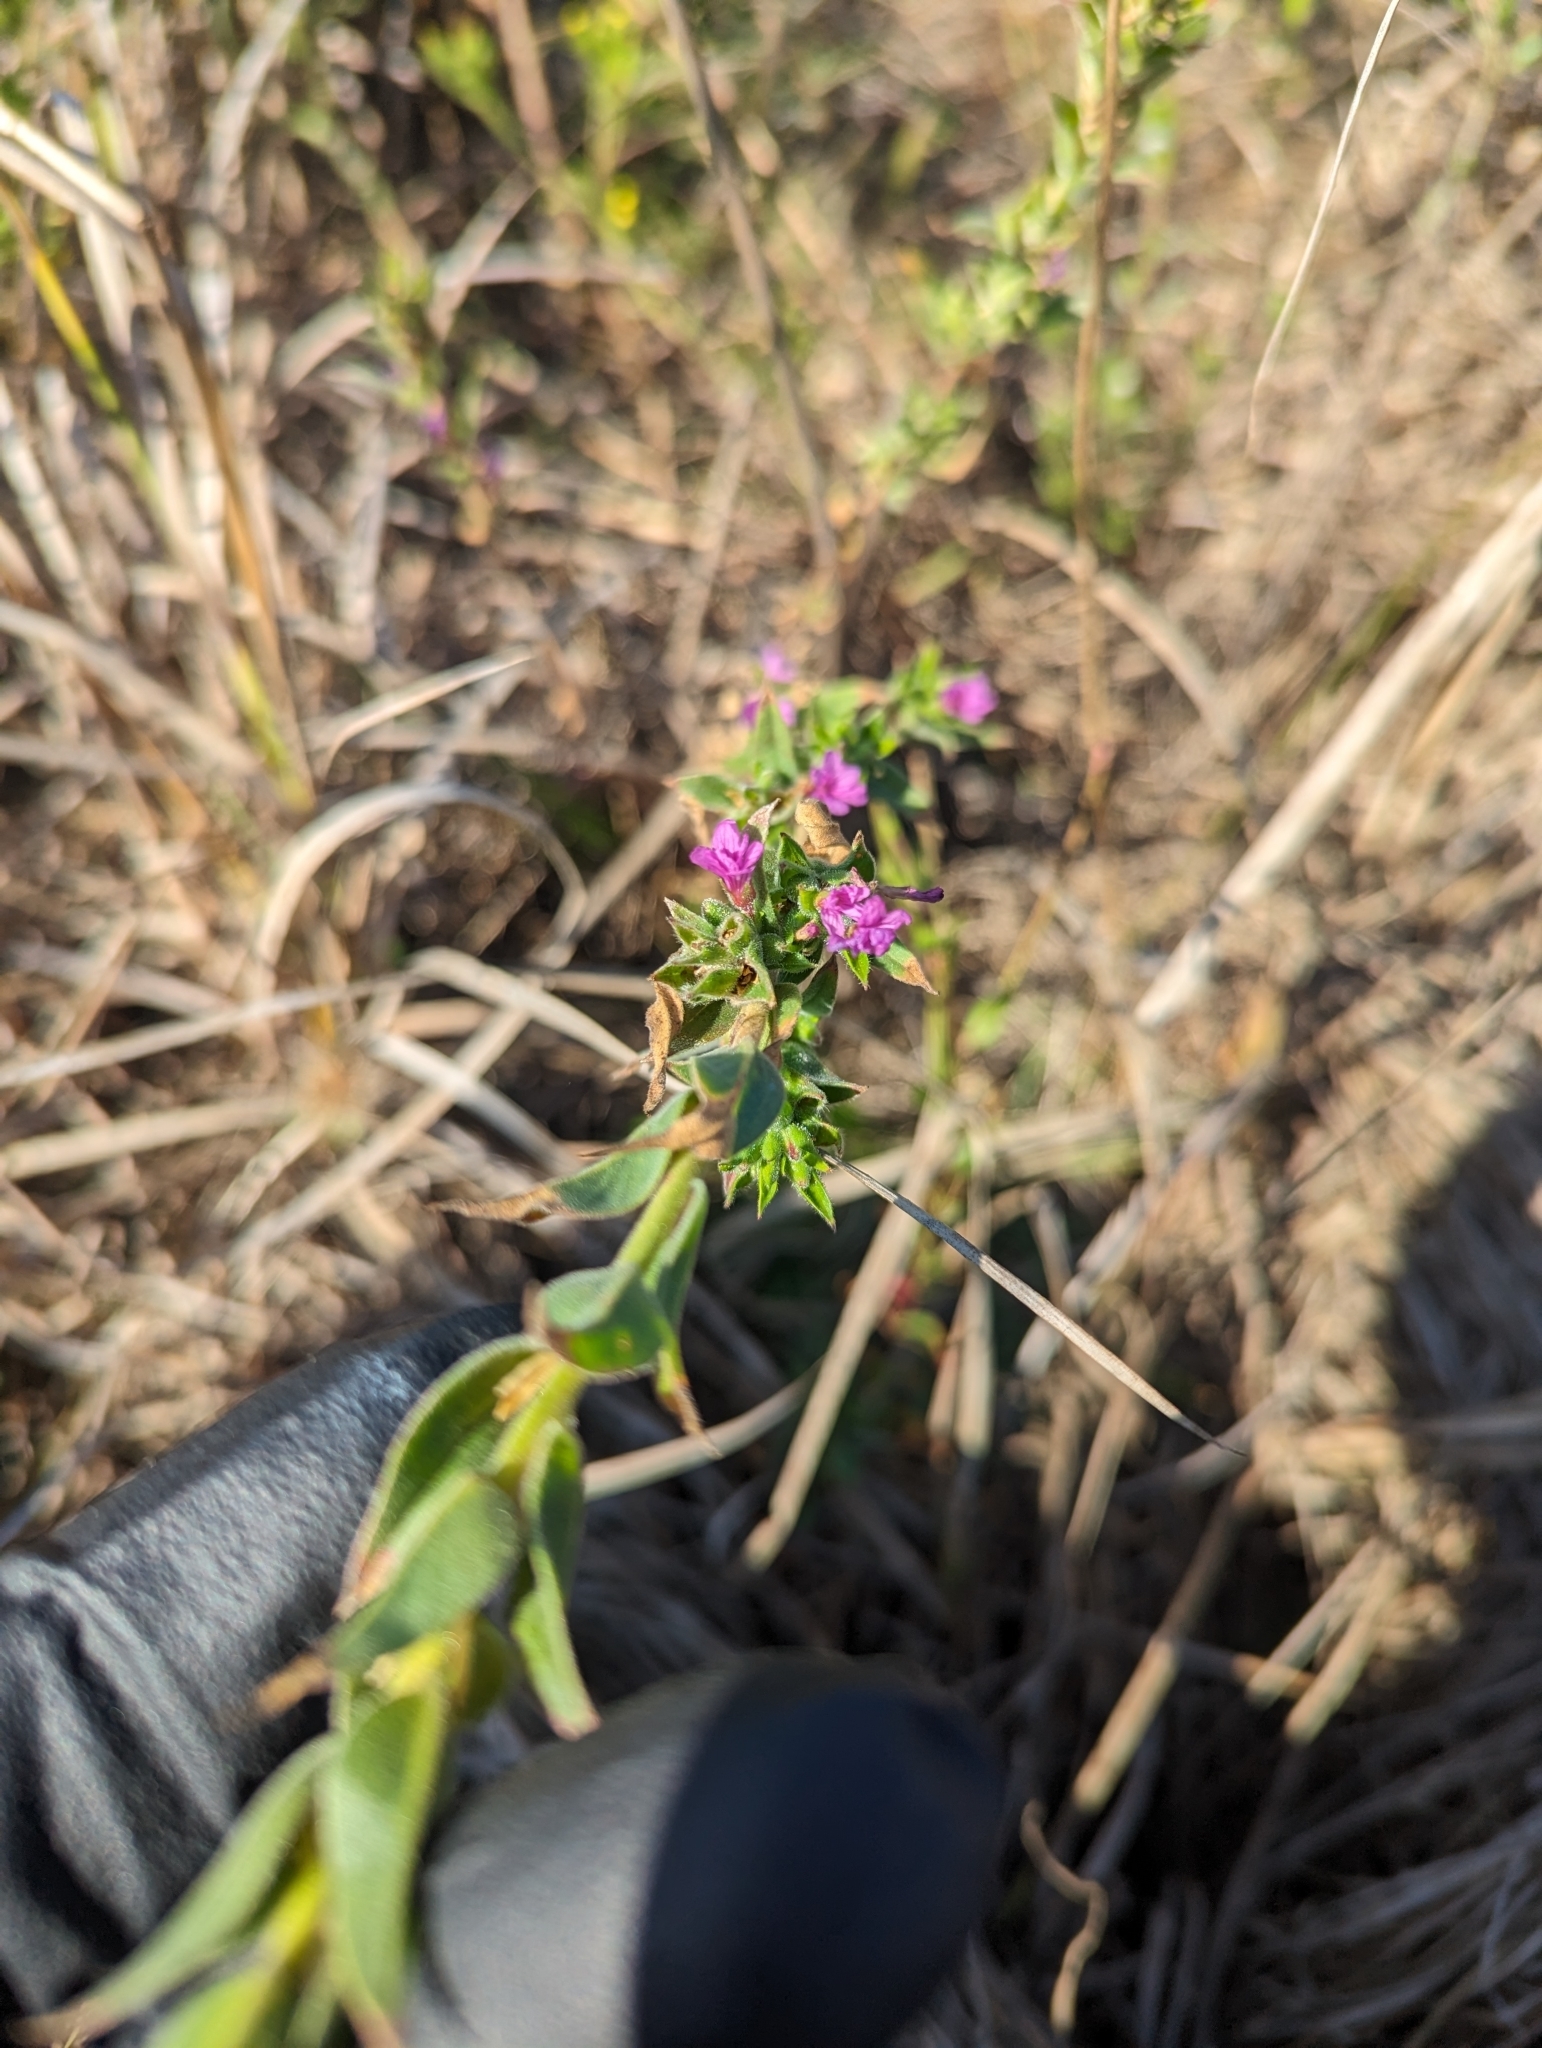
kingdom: Plantae
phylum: Tracheophyta
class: Magnoliopsida
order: Myrtales
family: Onagraceae
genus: Epilobium
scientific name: Epilobium densiflorum
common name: Dense spike-primrose
